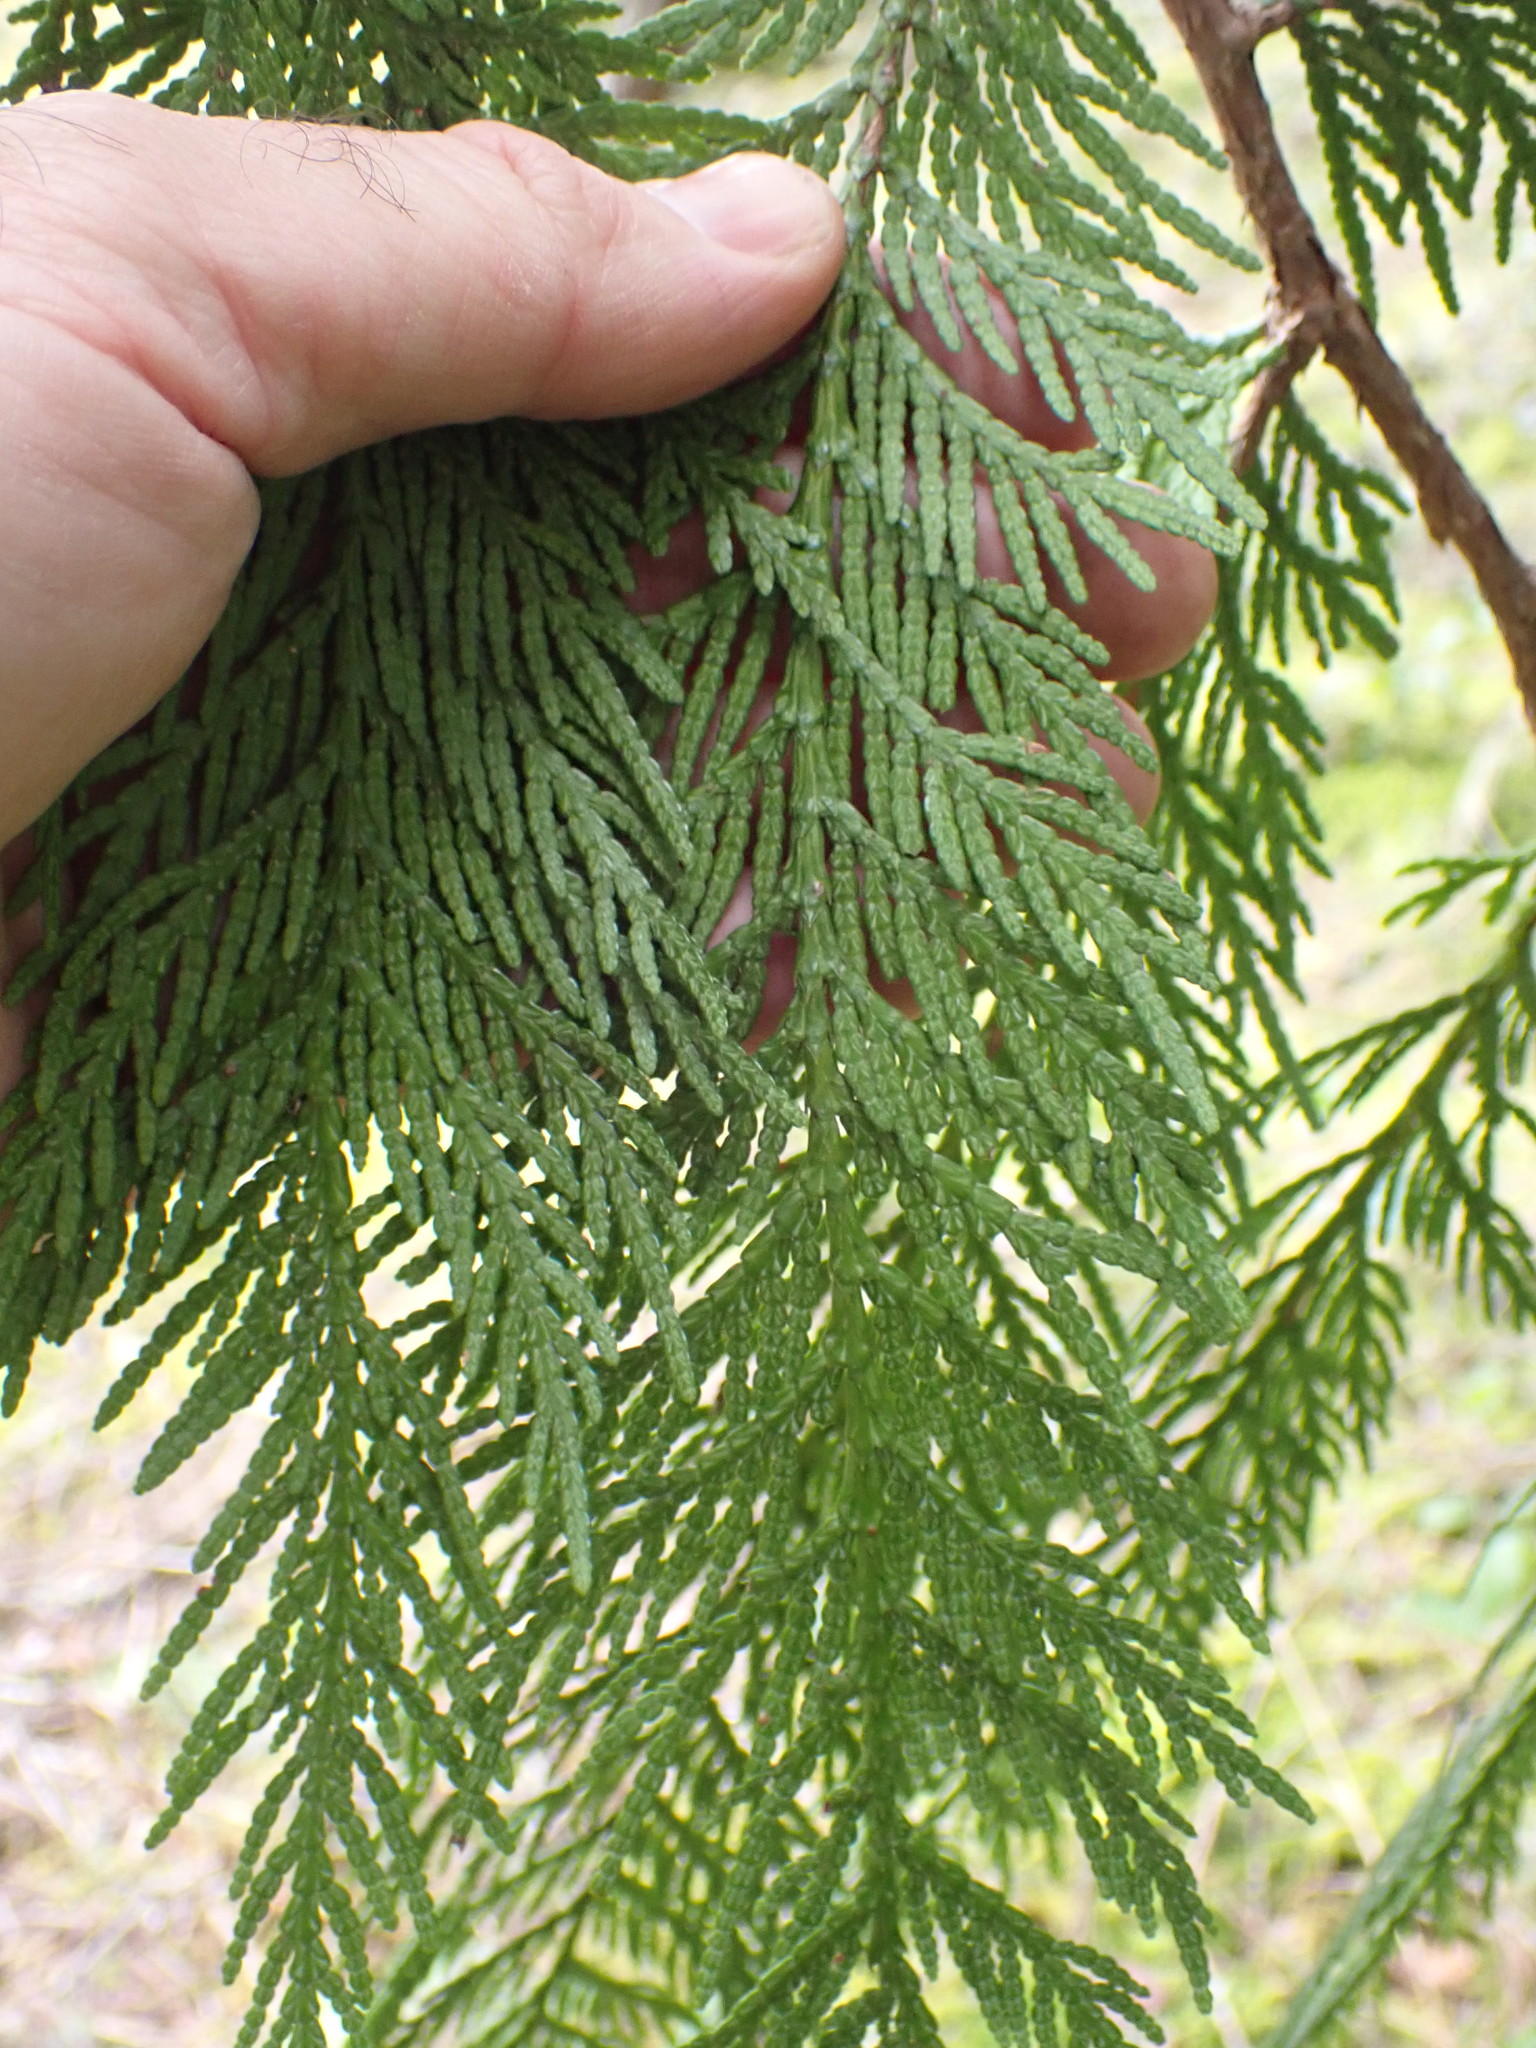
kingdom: Plantae
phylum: Tracheophyta
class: Pinopsida
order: Pinales
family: Cupressaceae
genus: Thuja
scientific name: Thuja plicata
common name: Western red-cedar
